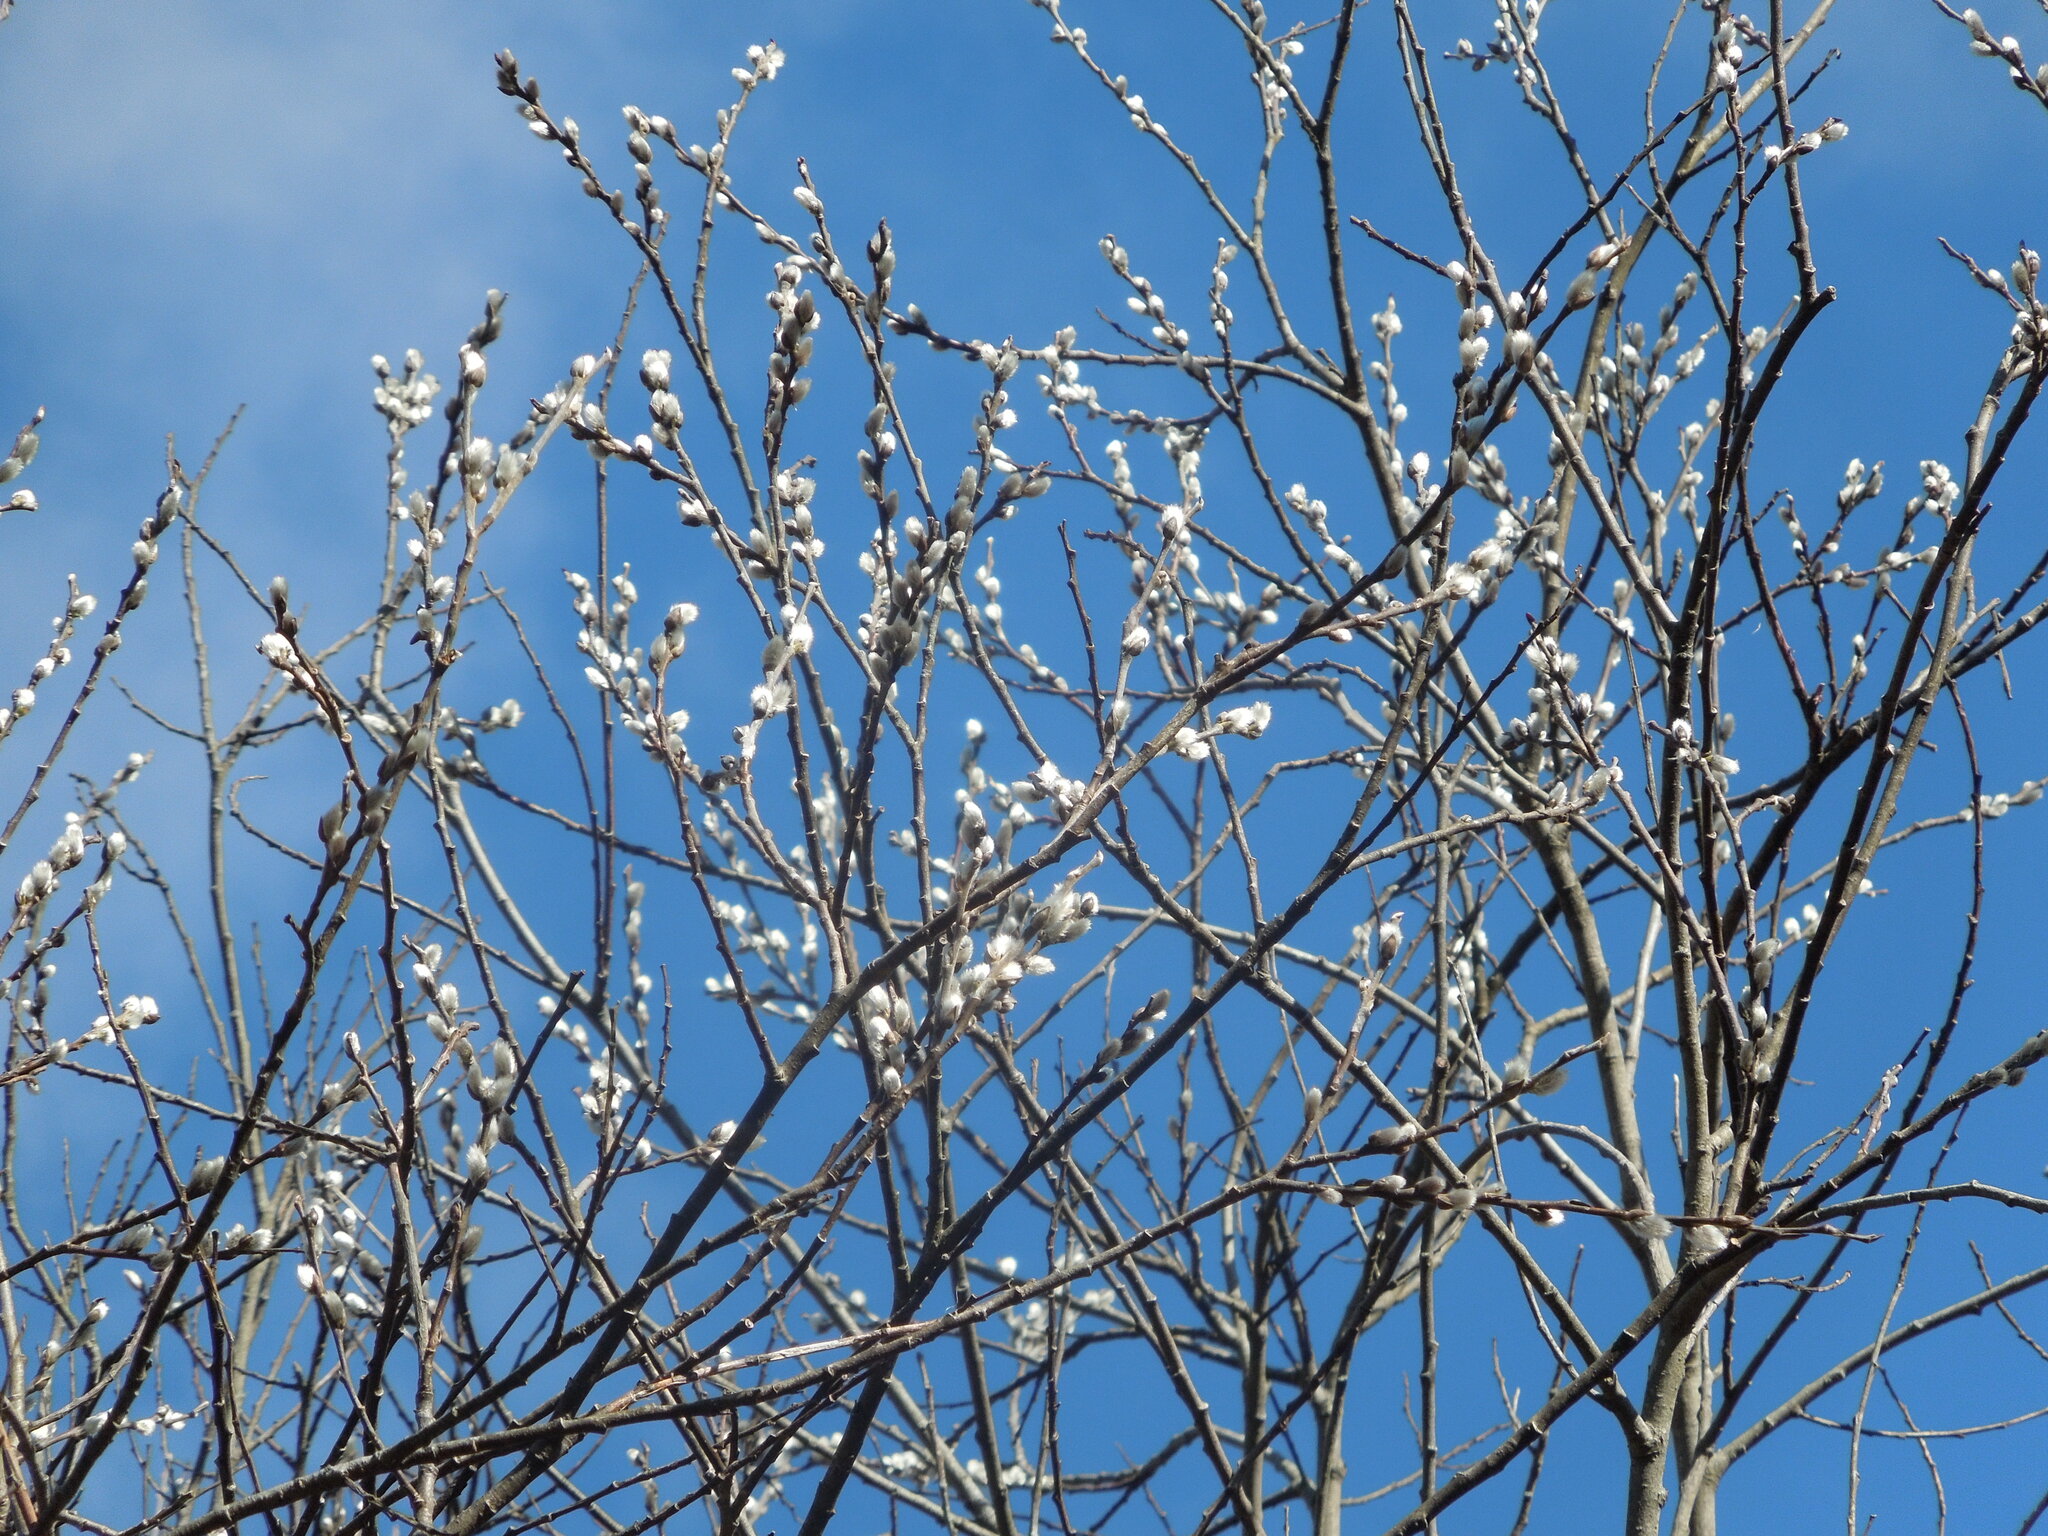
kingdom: Plantae
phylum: Tracheophyta
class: Magnoliopsida
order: Malpighiales
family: Salicaceae
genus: Salix
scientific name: Salix discolor
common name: Glaucous willow
